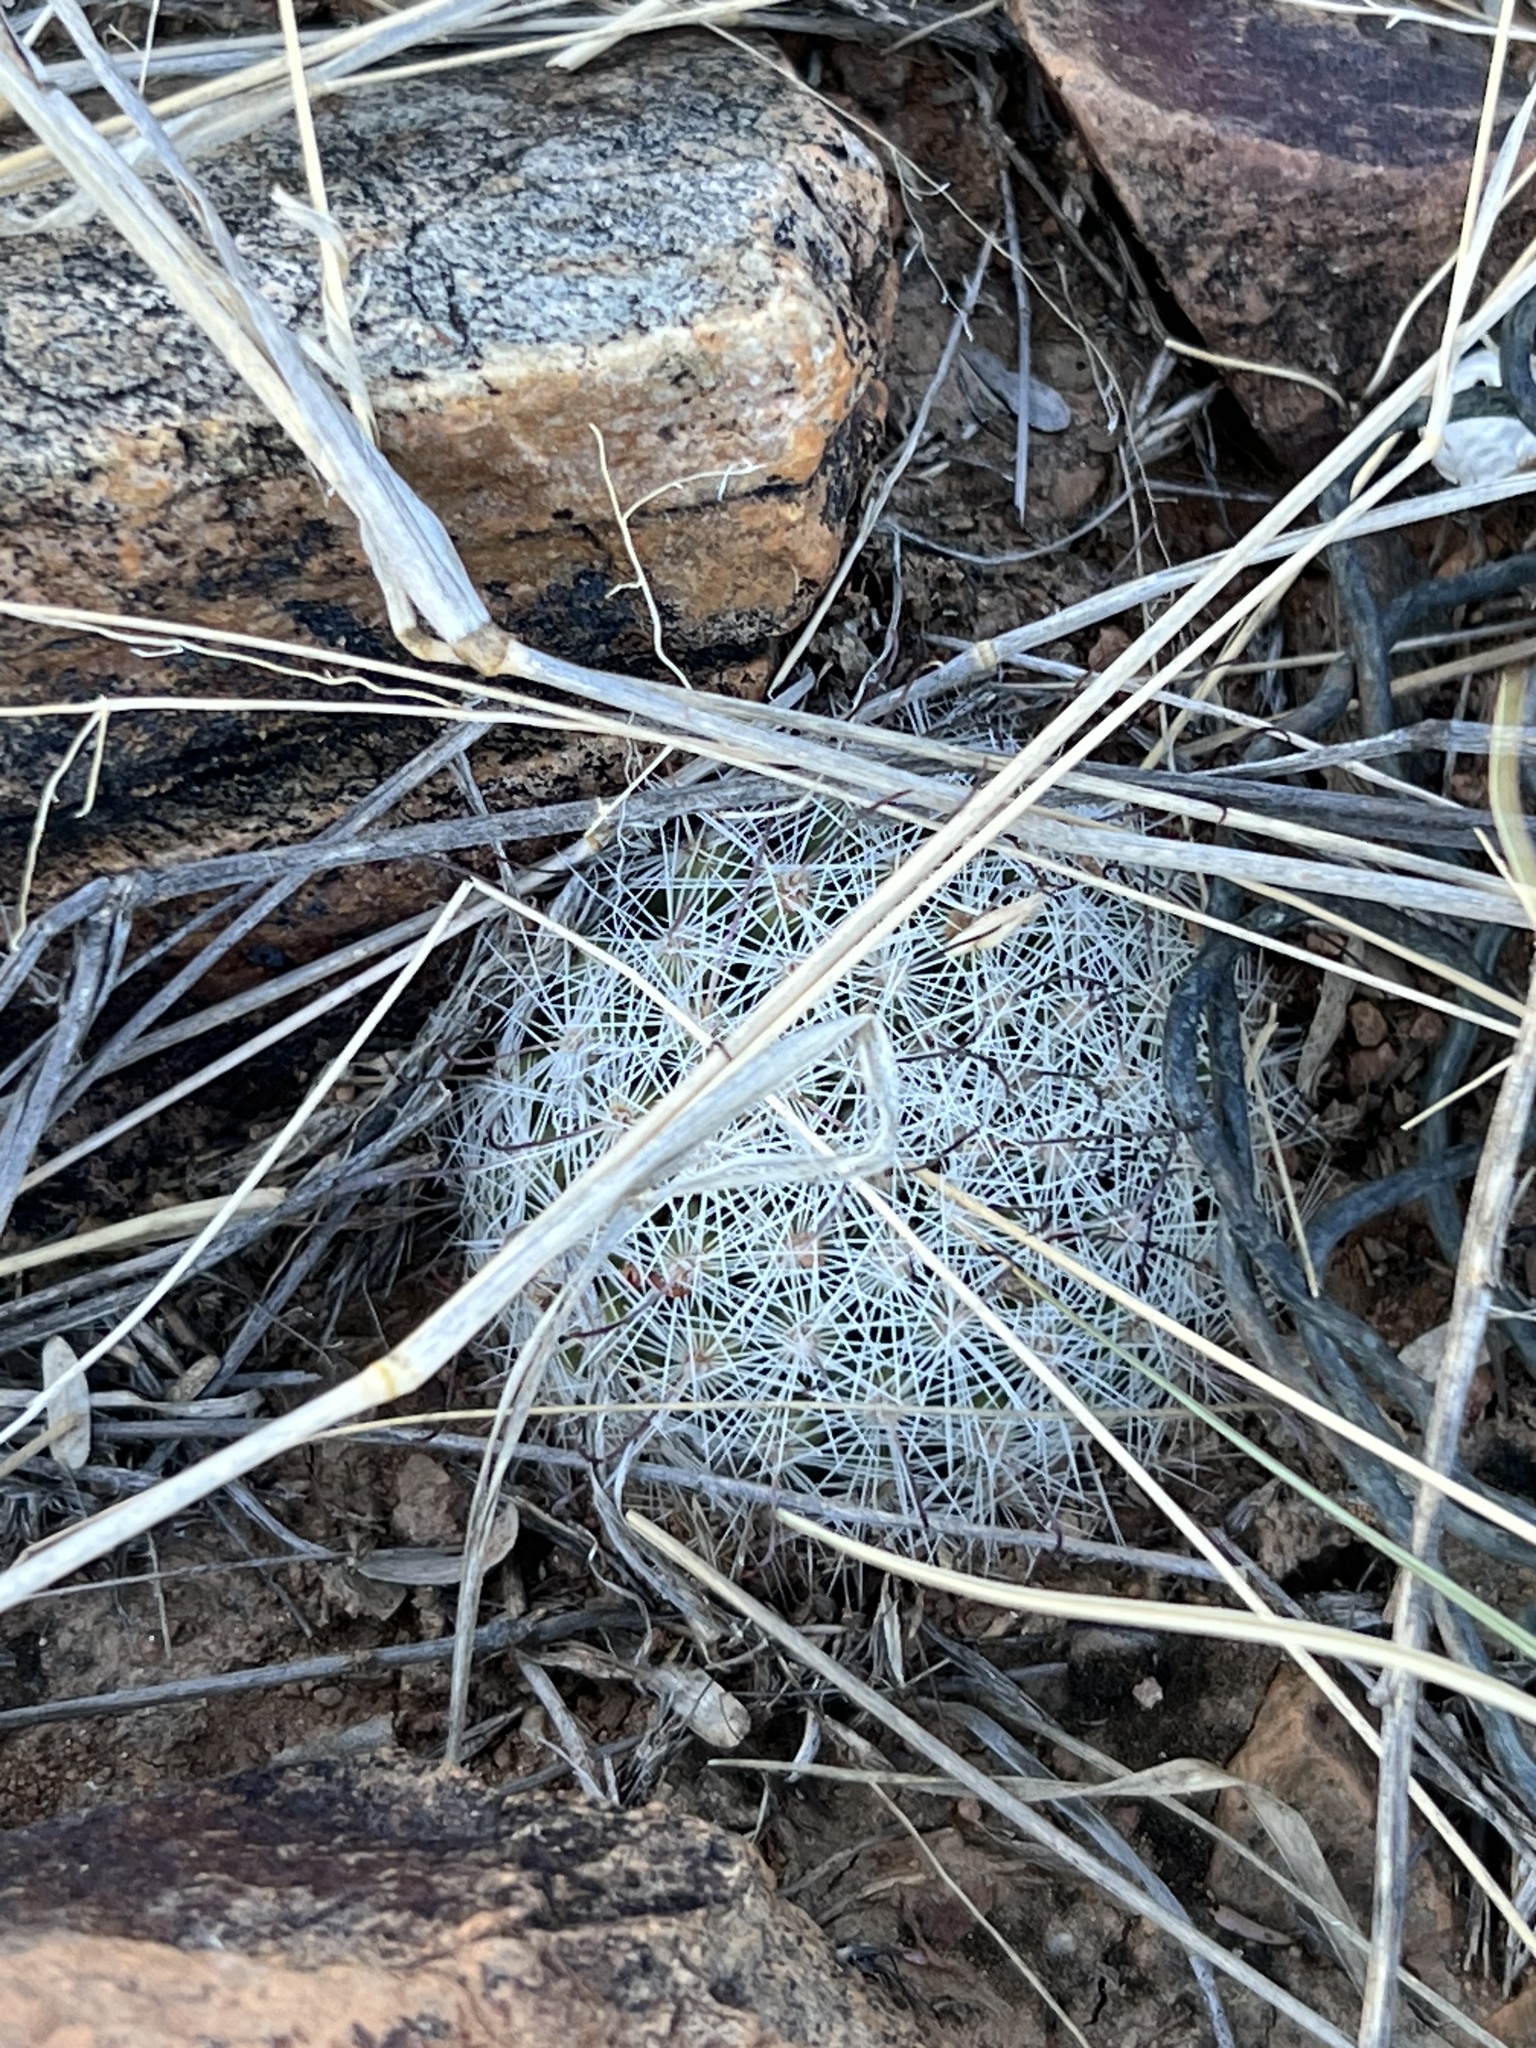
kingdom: Plantae
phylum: Tracheophyta
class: Magnoliopsida
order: Caryophyllales
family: Cactaceae
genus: Cochemiea
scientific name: Cochemiea grahamii
